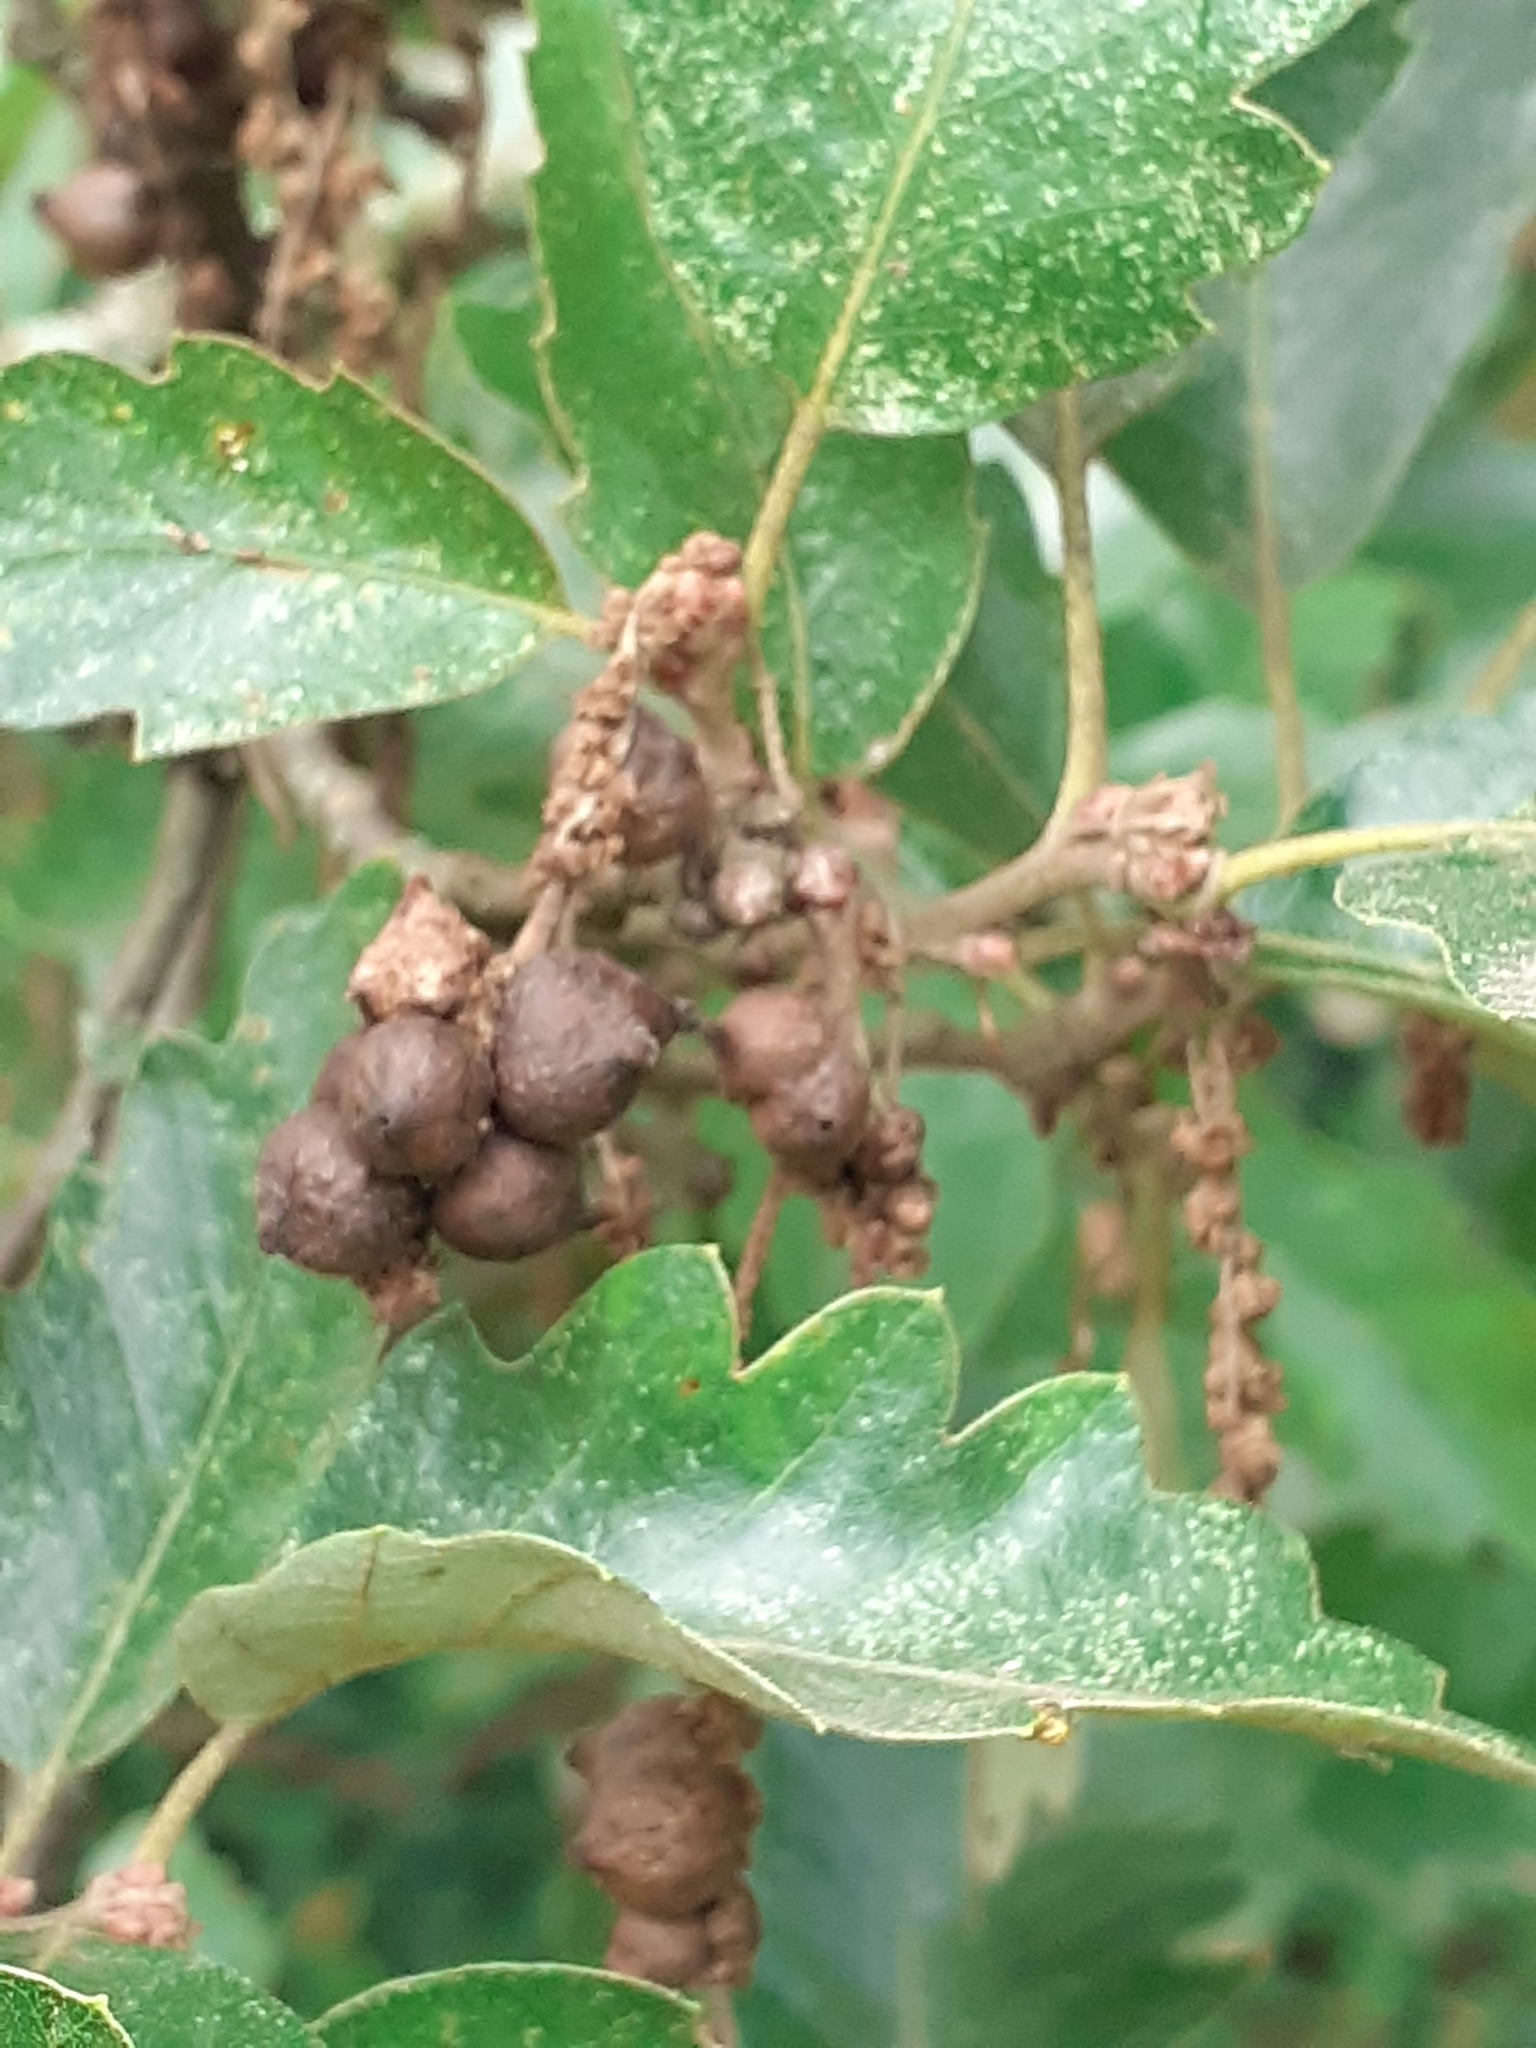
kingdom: Animalia
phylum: Arthropoda
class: Insecta
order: Hymenoptera
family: Cynipidae
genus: Andricus
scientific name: Andricus grossulariae
